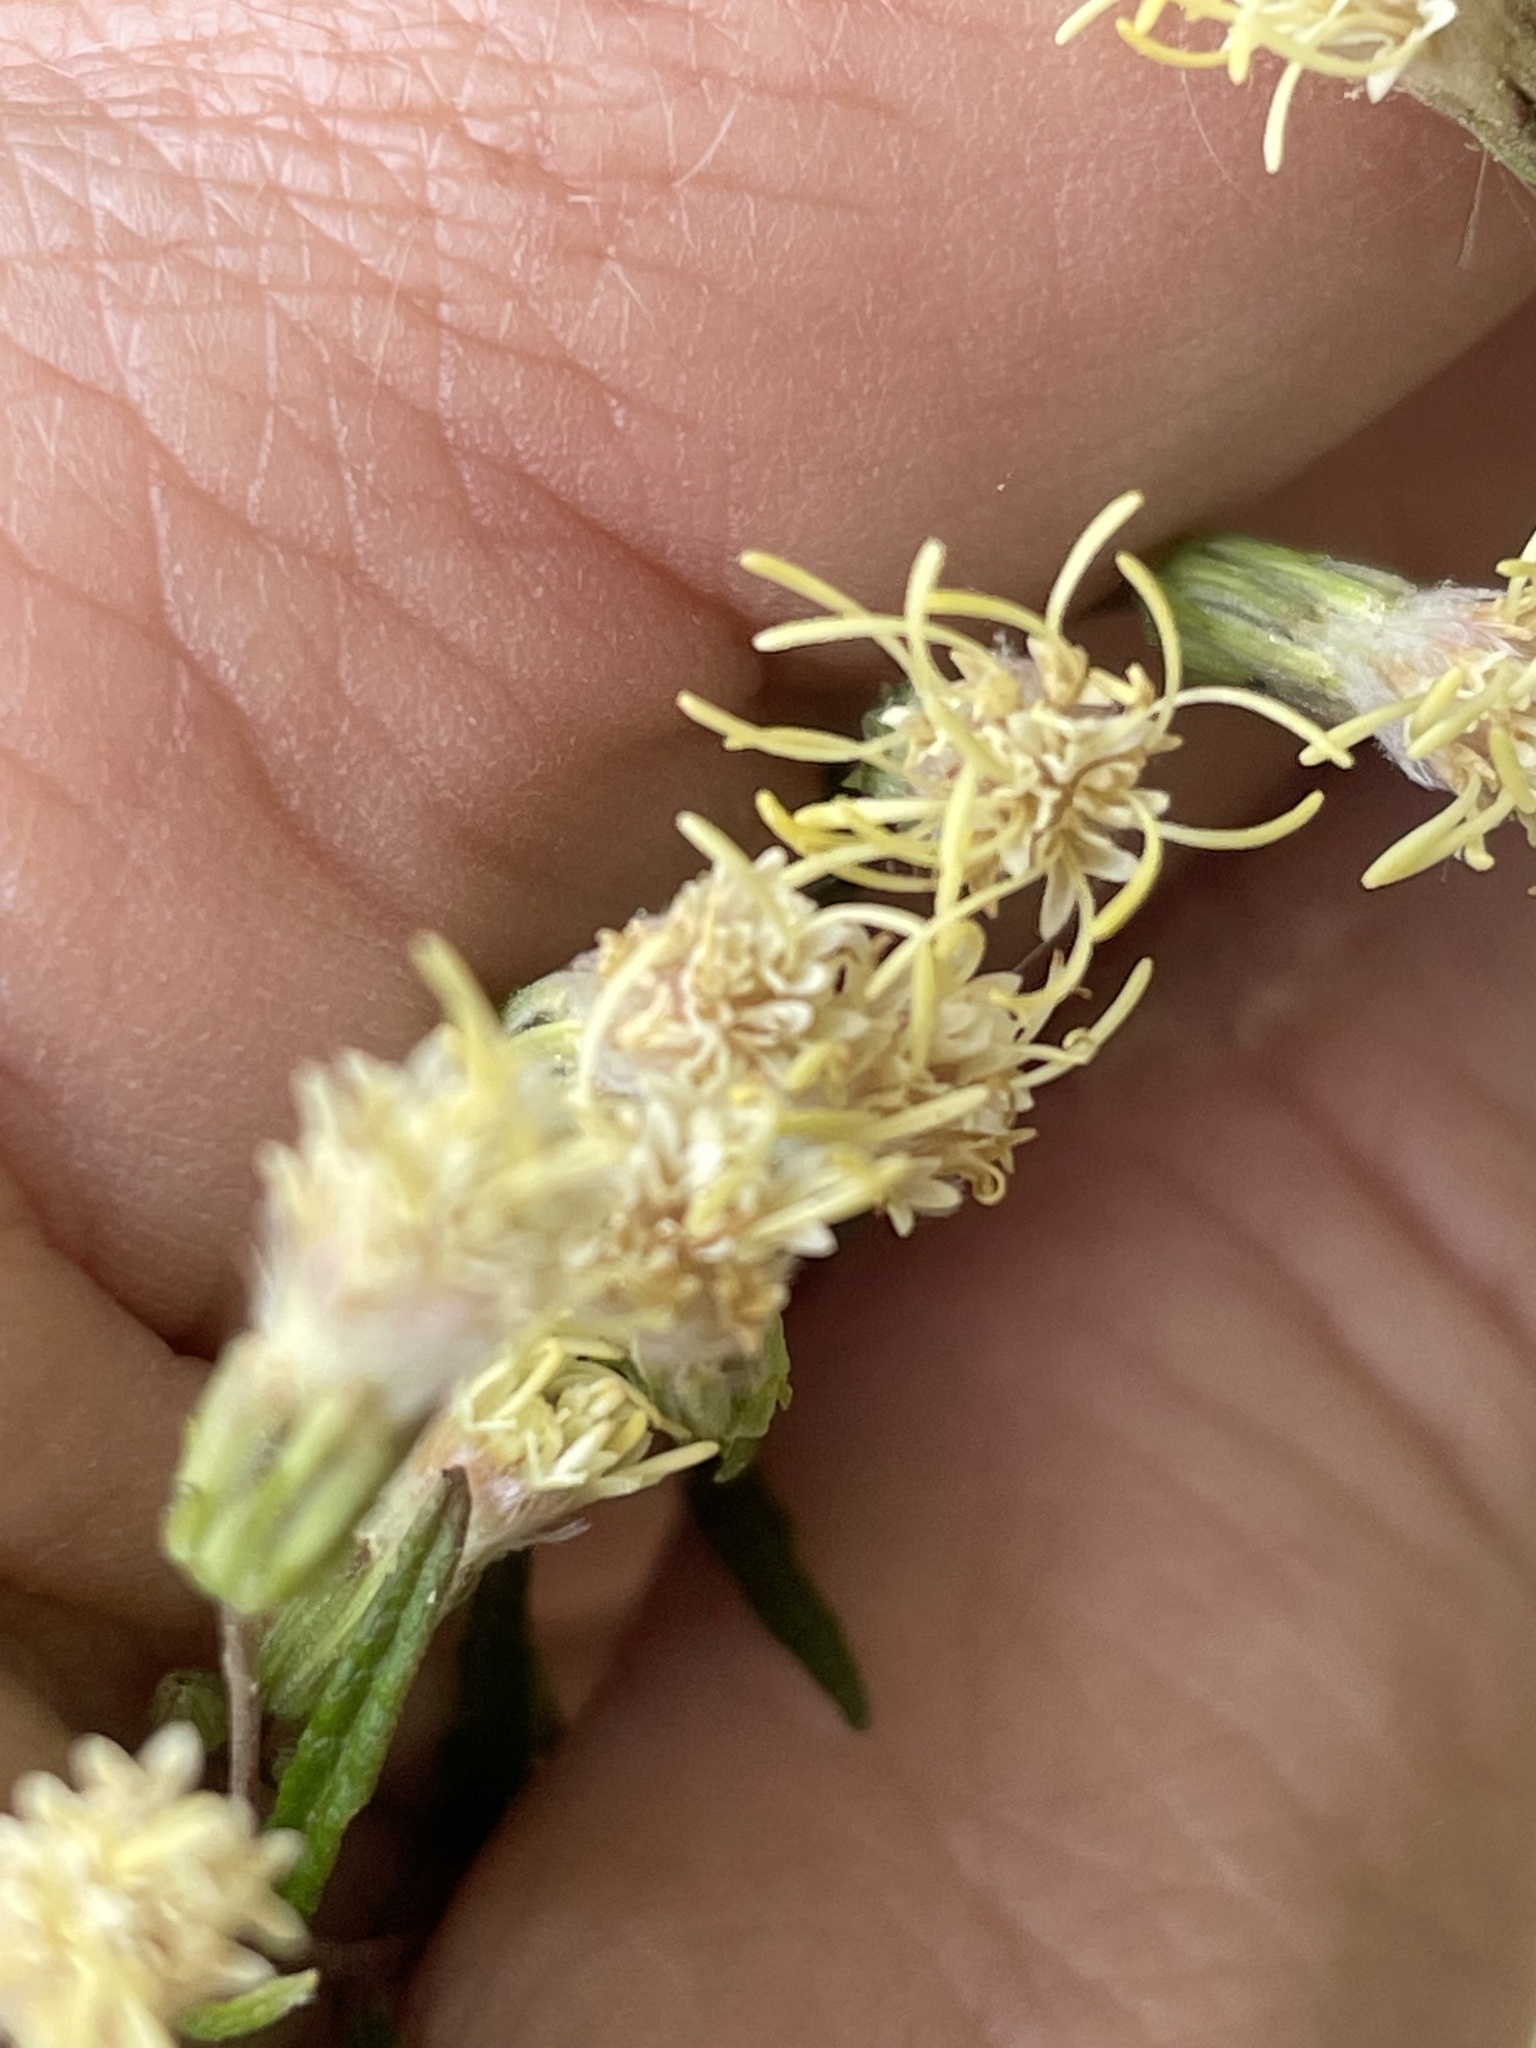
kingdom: Plantae
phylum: Tracheophyta
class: Magnoliopsida
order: Asterales
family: Asteraceae
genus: Brickellia
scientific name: Brickellia eupatorioides
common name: False boneset
